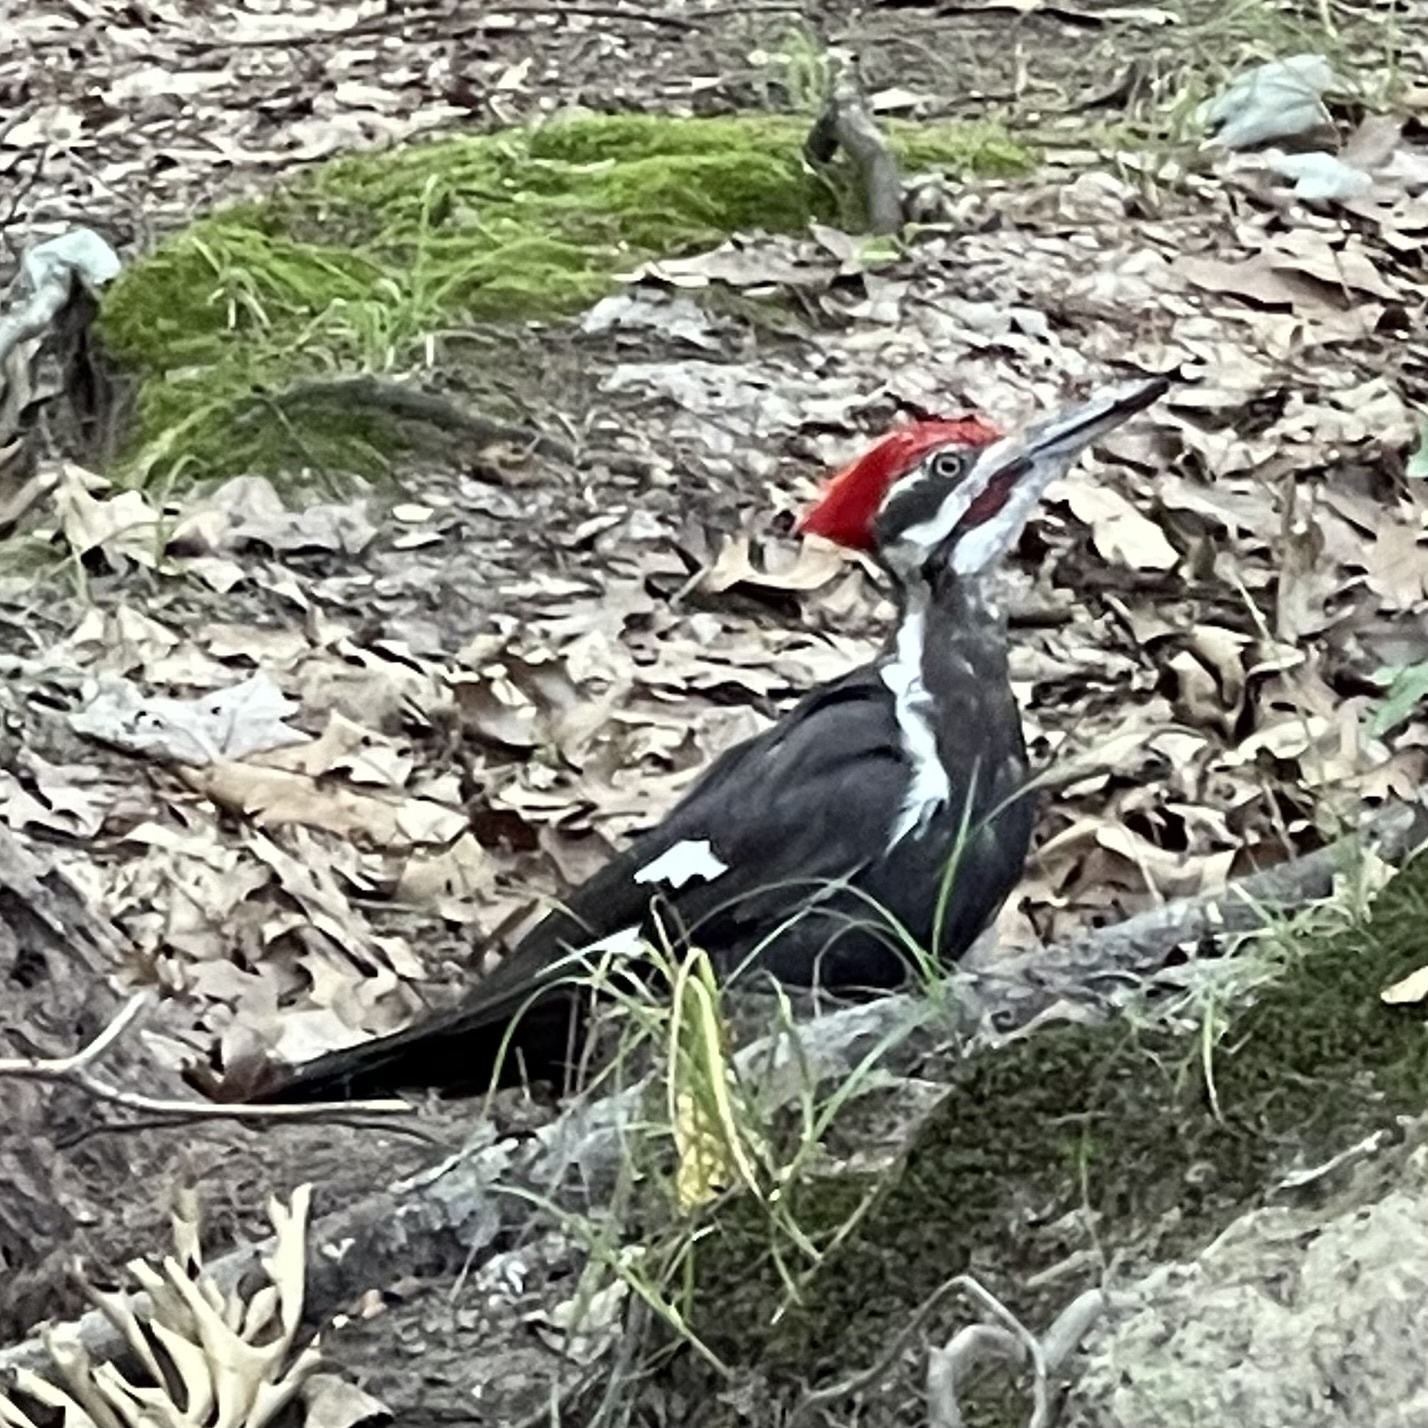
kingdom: Animalia
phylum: Chordata
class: Aves
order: Piciformes
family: Picidae
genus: Dryocopus
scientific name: Dryocopus pileatus
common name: Pileated woodpecker
